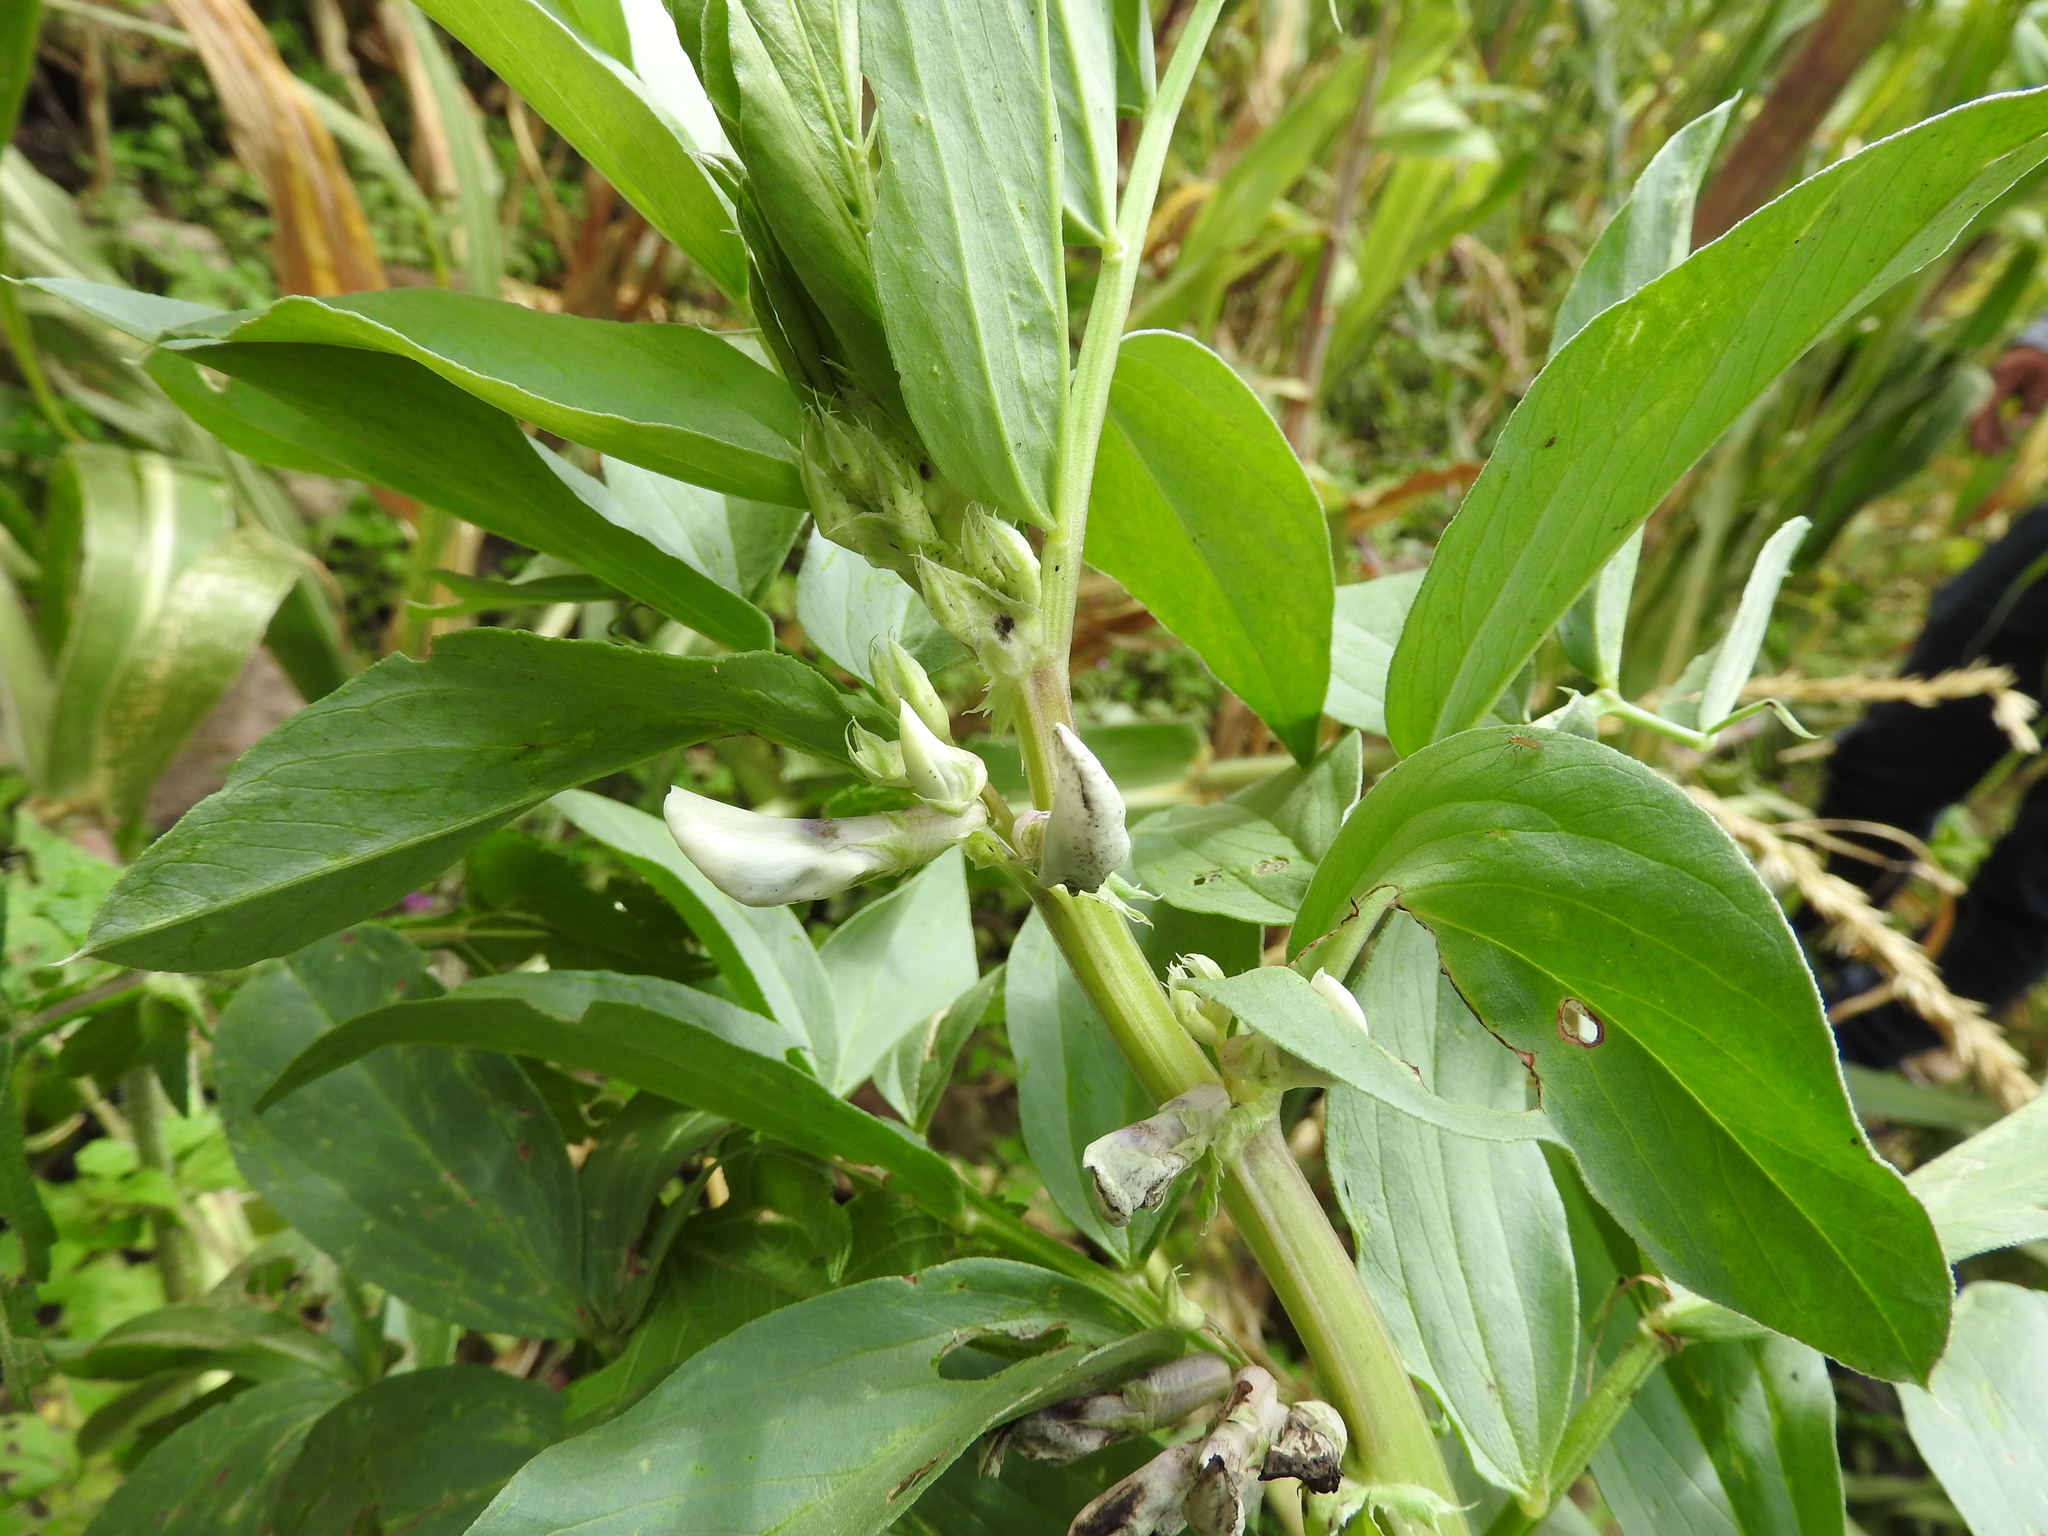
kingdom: Plantae
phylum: Tracheophyta
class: Magnoliopsida
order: Fabales
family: Fabaceae
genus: Vicia
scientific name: Vicia faba
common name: Broad bean
